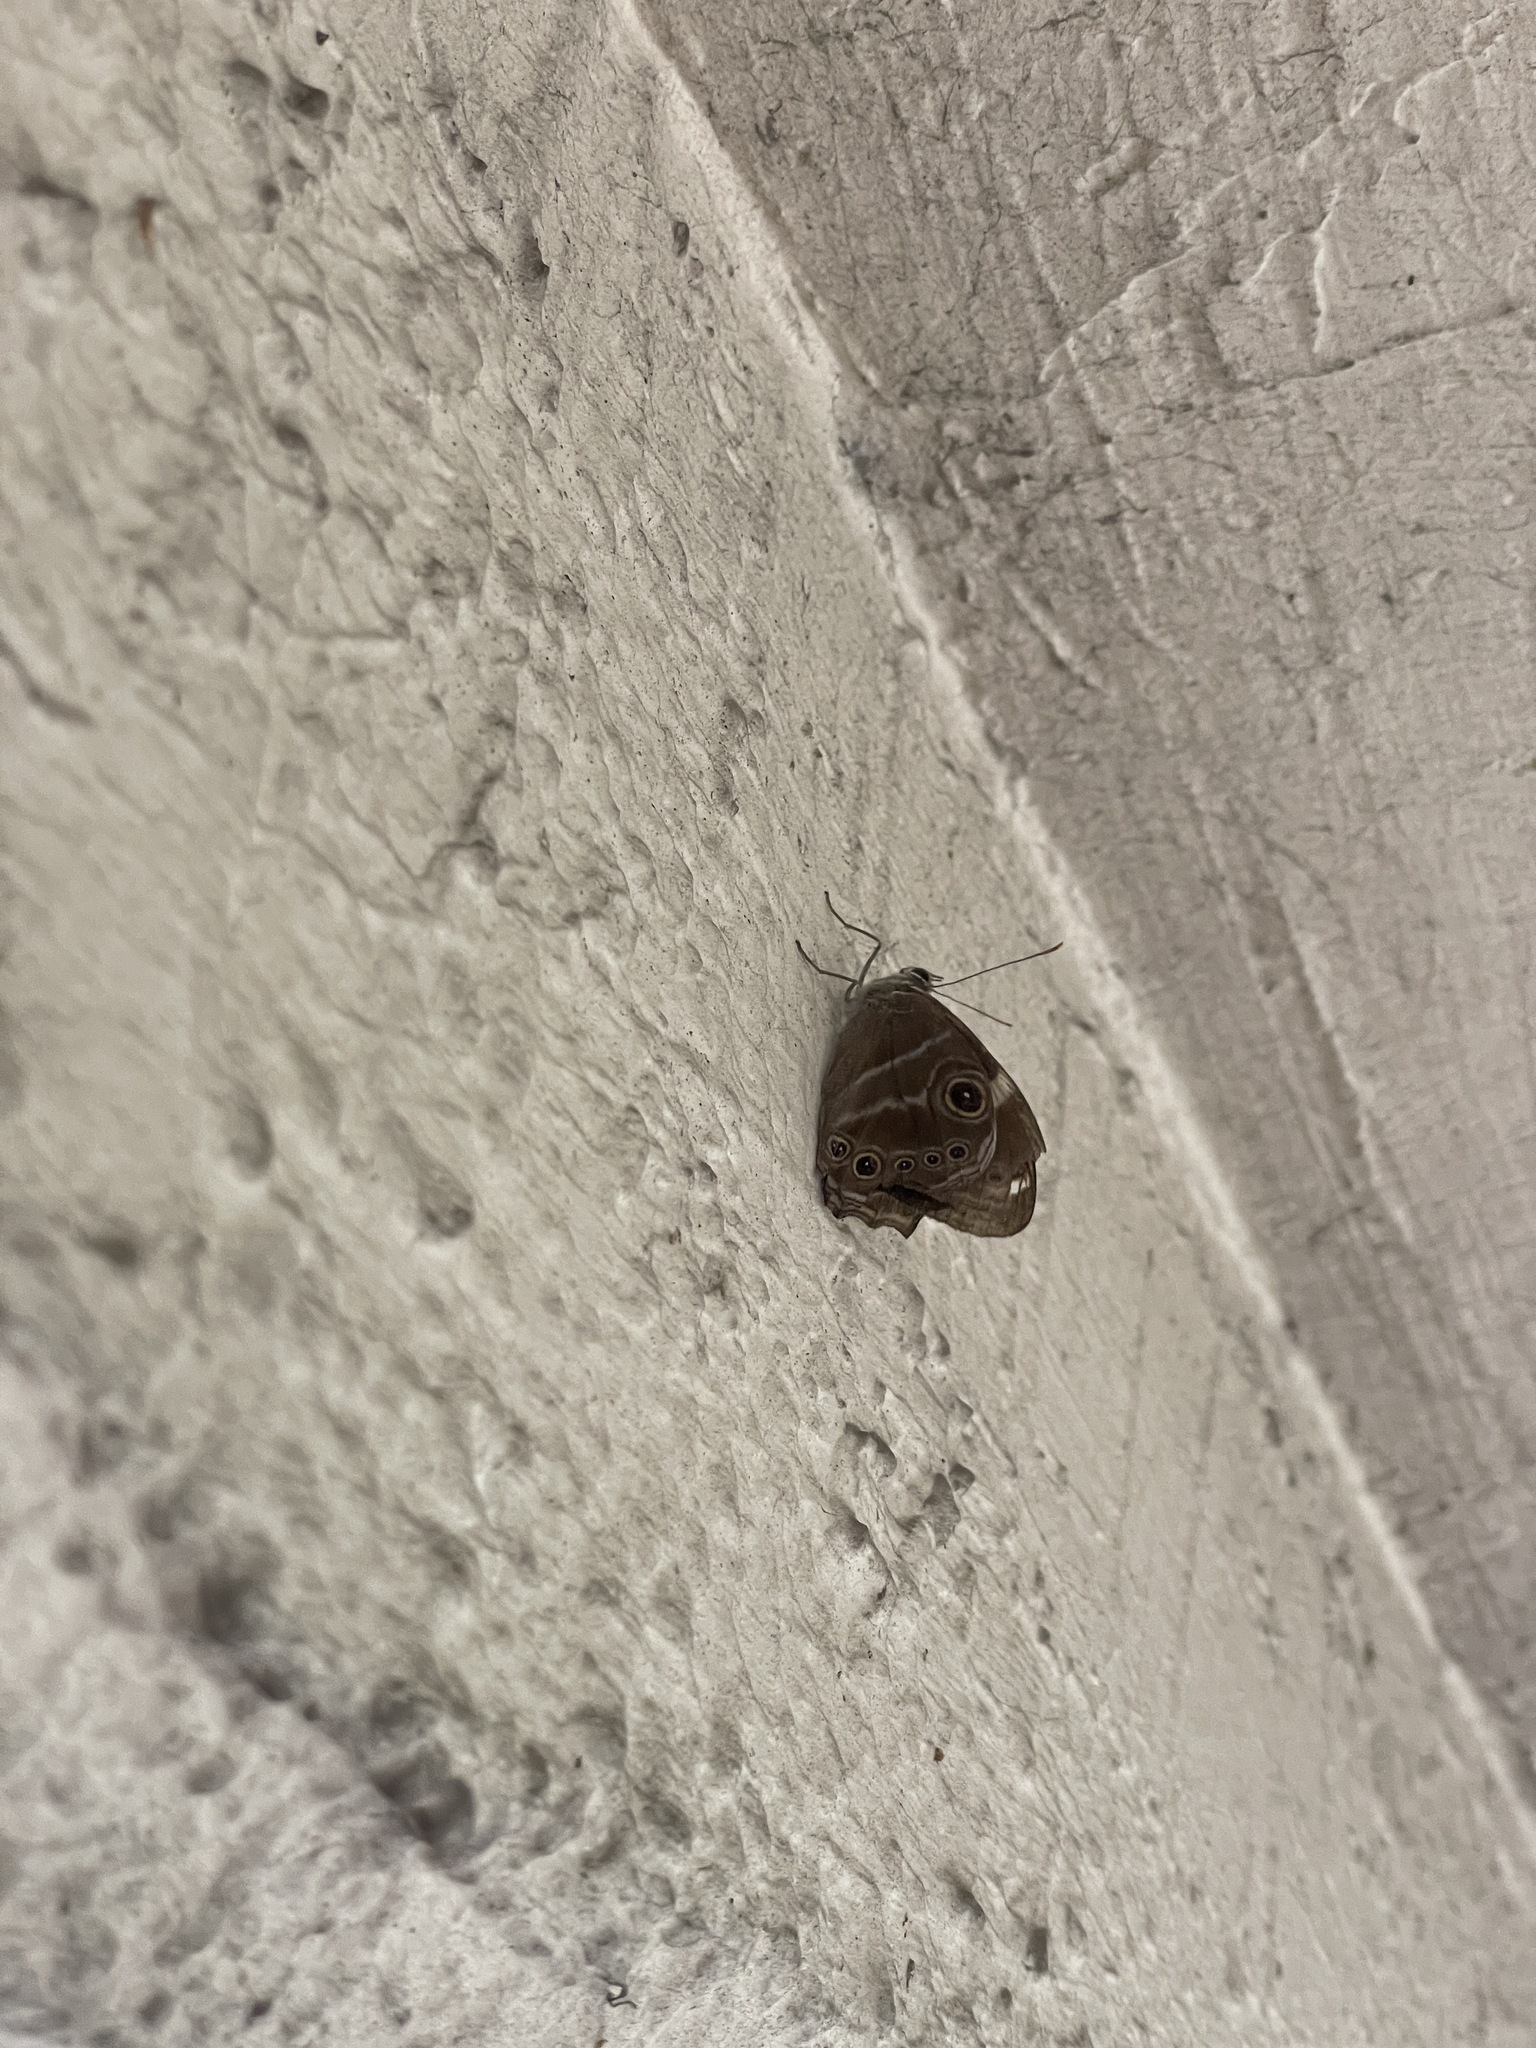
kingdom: Animalia
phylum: Arthropoda
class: Insecta
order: Lepidoptera
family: Nymphalidae
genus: Lethe
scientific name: Lethe confusa
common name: Banded treebrown
